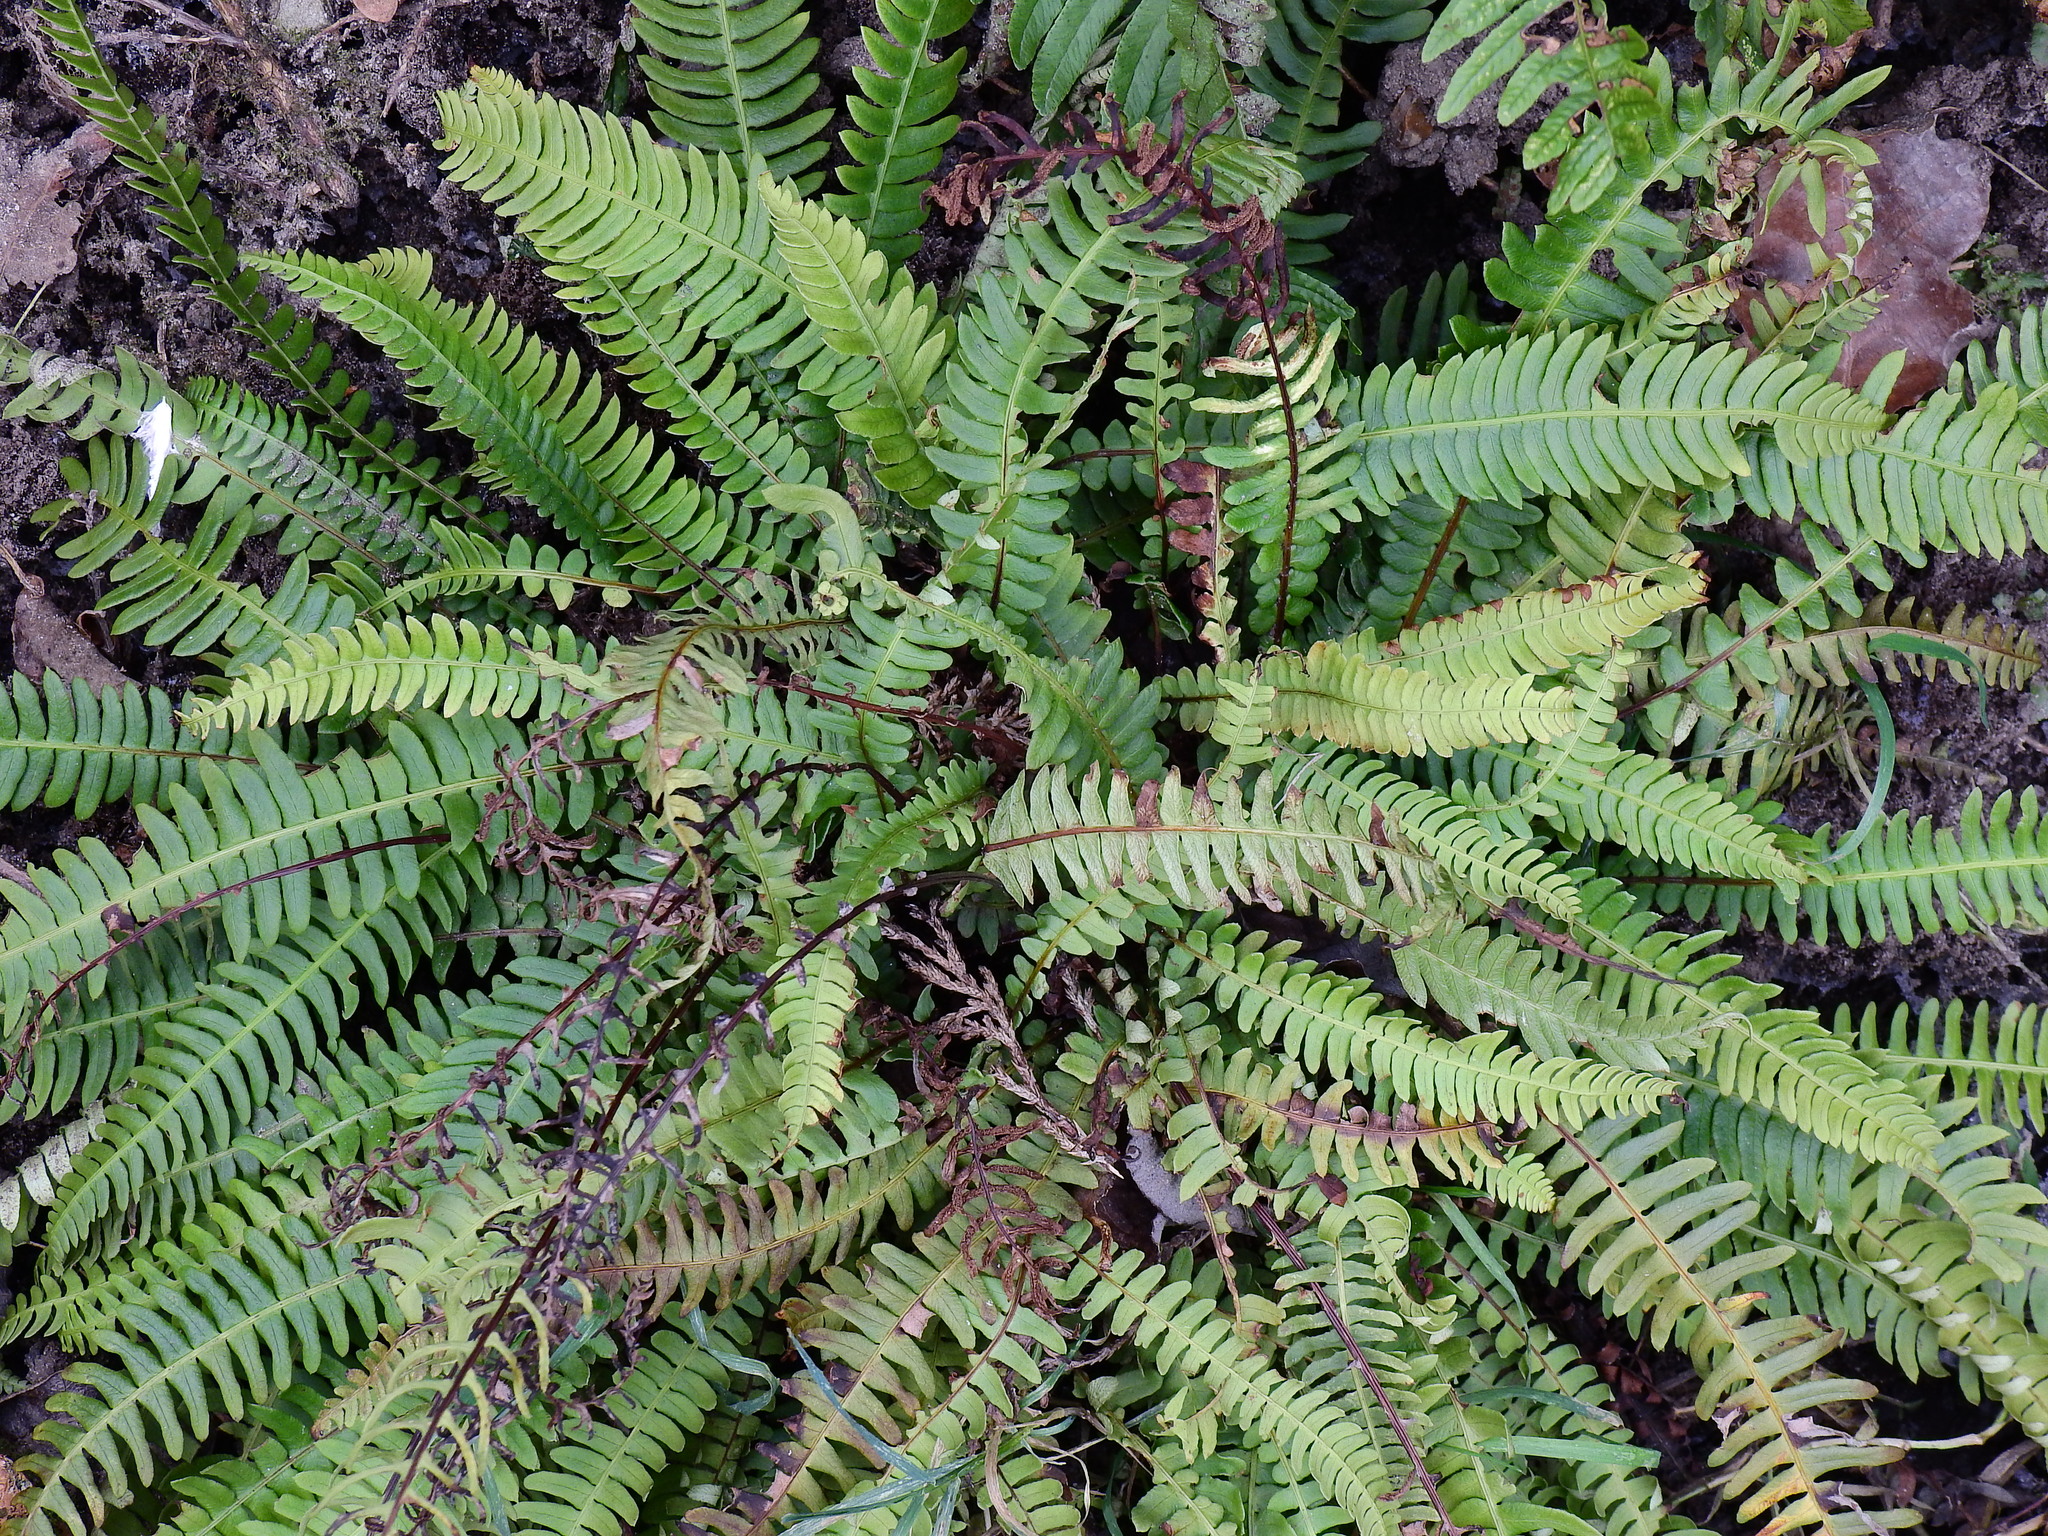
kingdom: Plantae
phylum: Tracheophyta
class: Polypodiopsida
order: Polypodiales
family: Blechnaceae
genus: Struthiopteris
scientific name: Struthiopteris spicant
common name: Deer fern
